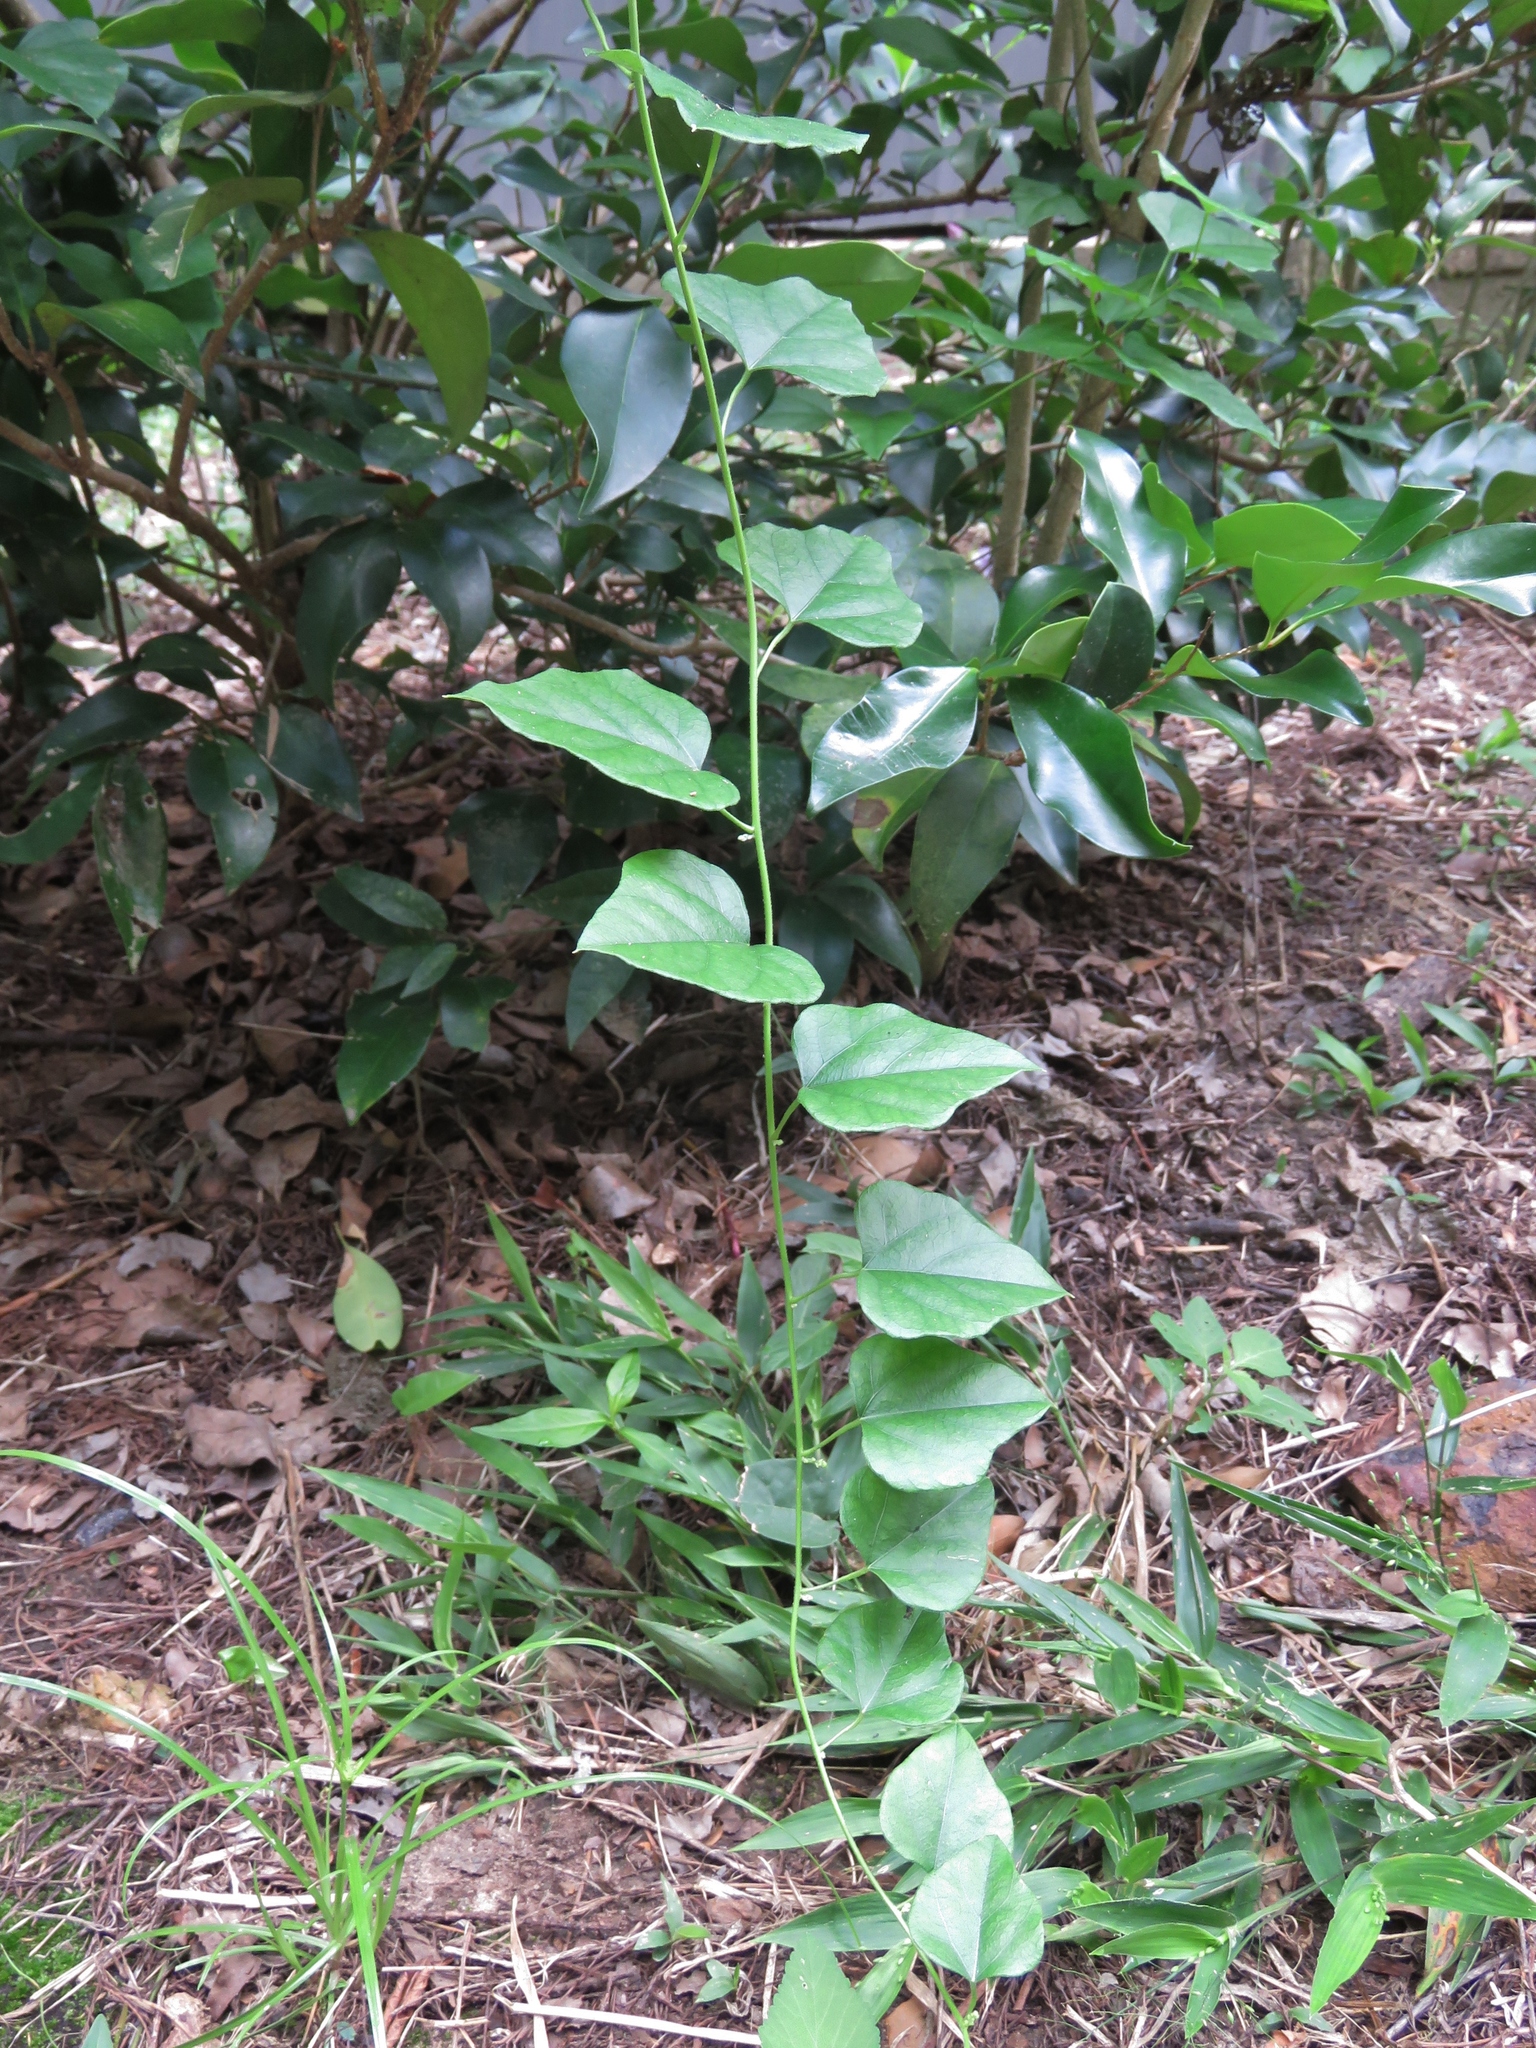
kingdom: Plantae
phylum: Tracheophyta
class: Magnoliopsida
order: Ranunculales
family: Menispermaceae
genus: Cocculus
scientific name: Cocculus carolinus
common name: Carolina moonseed
